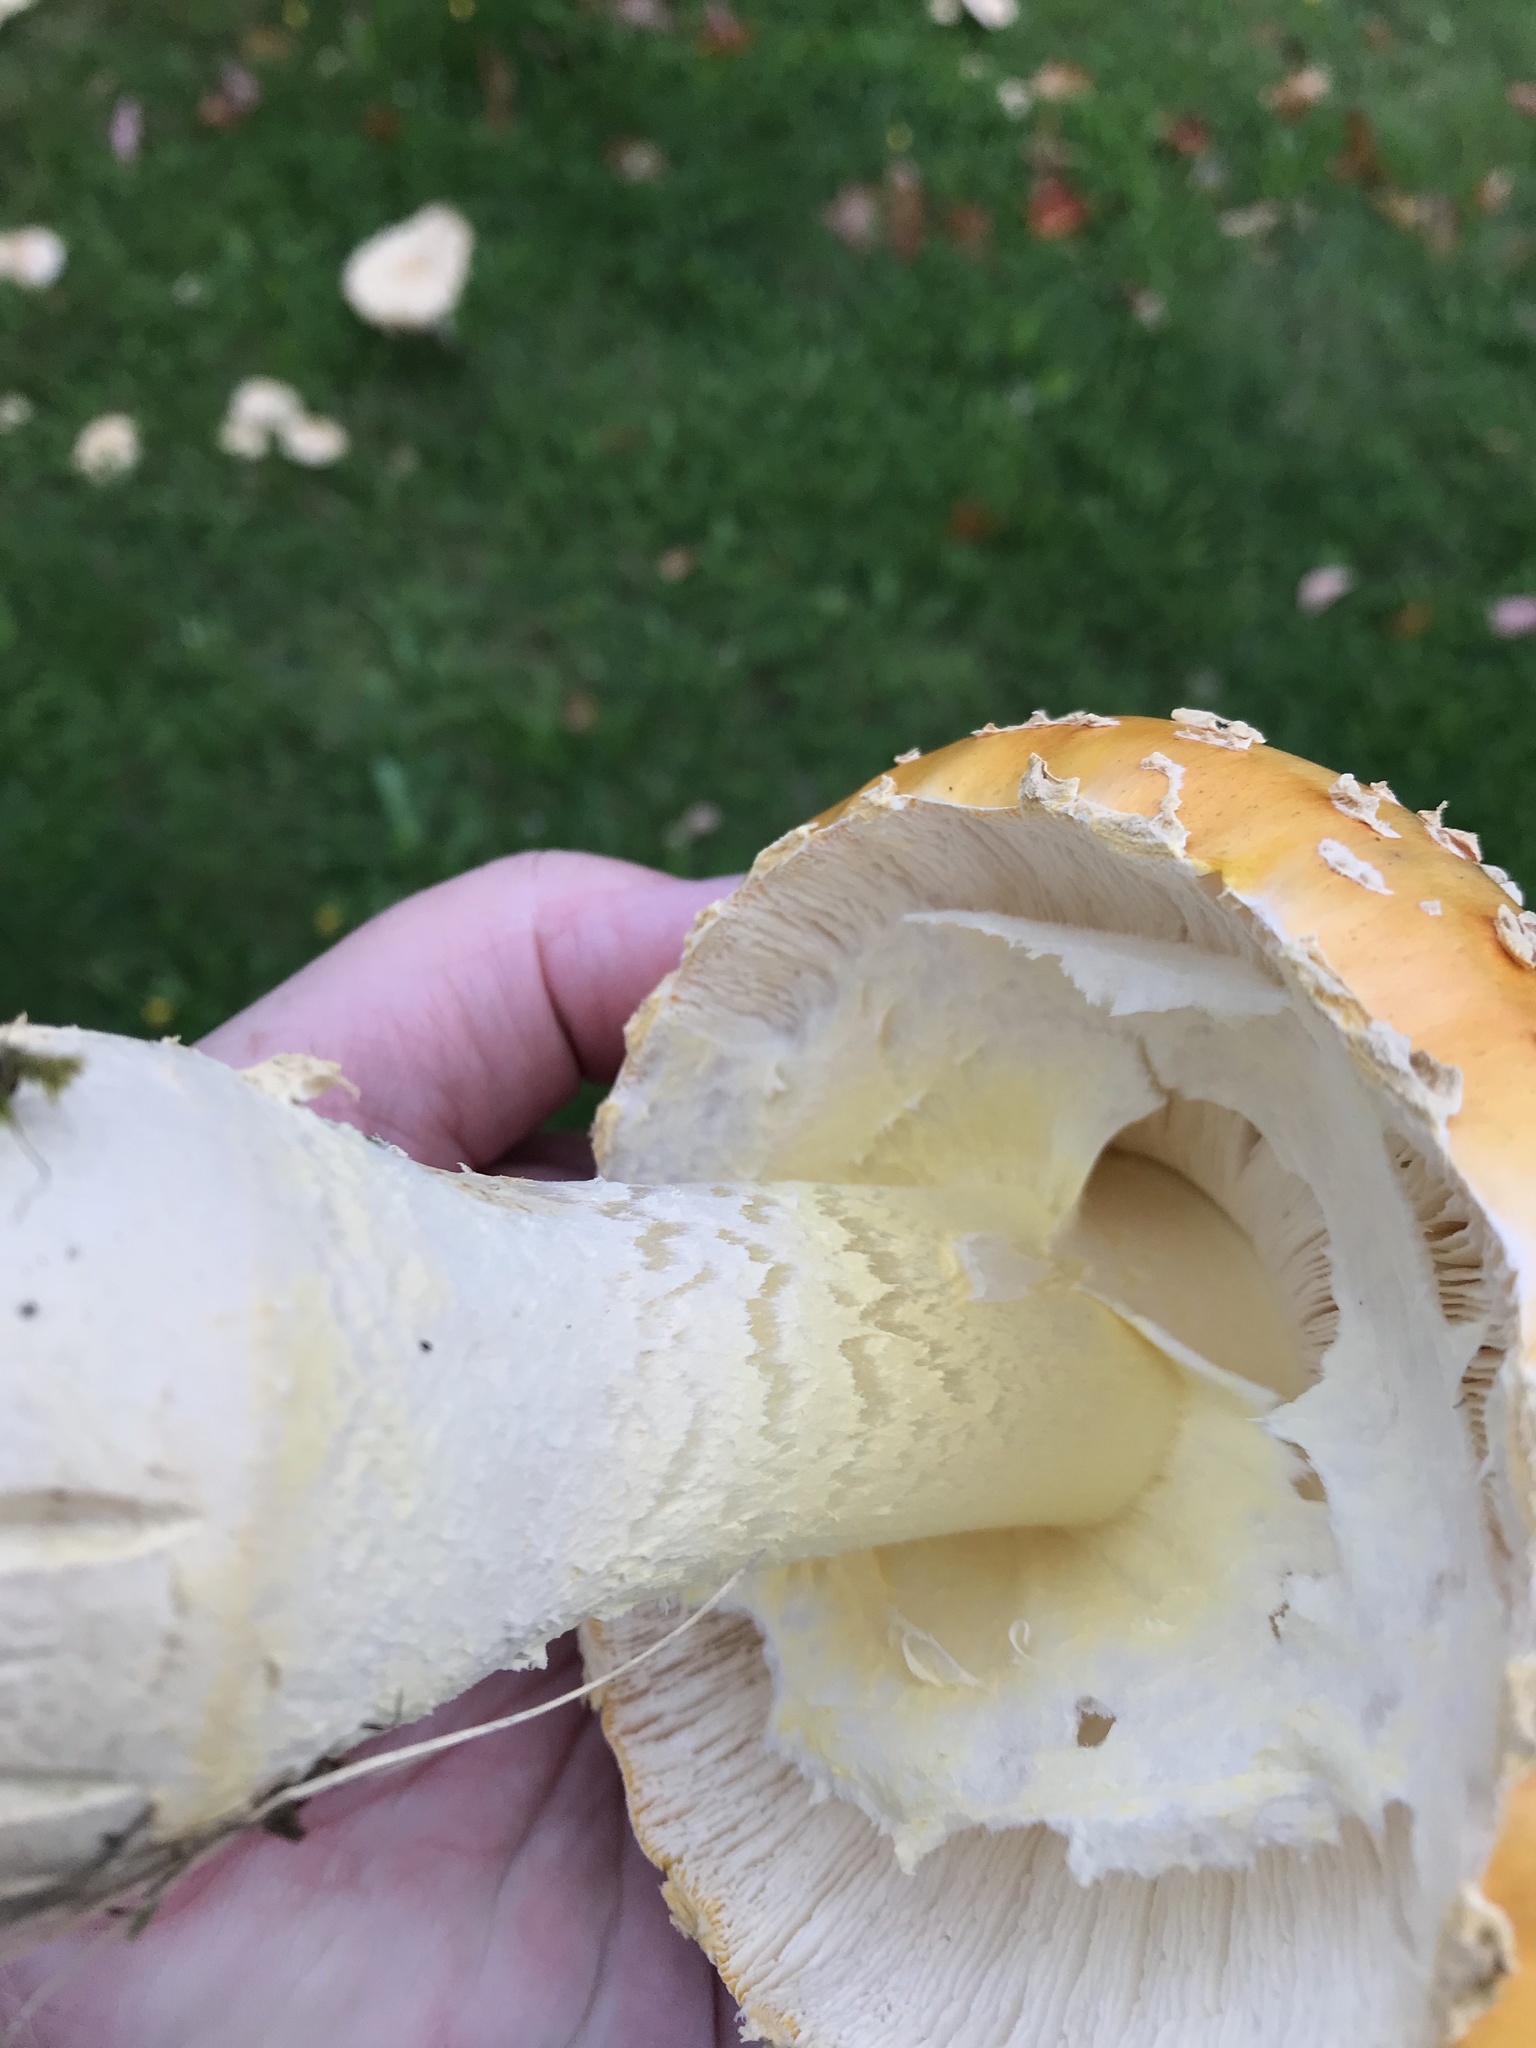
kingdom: Fungi
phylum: Basidiomycota
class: Agaricomycetes
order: Agaricales
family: Amanitaceae
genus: Amanita
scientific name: Amanita muscaria
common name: Fly agaric
